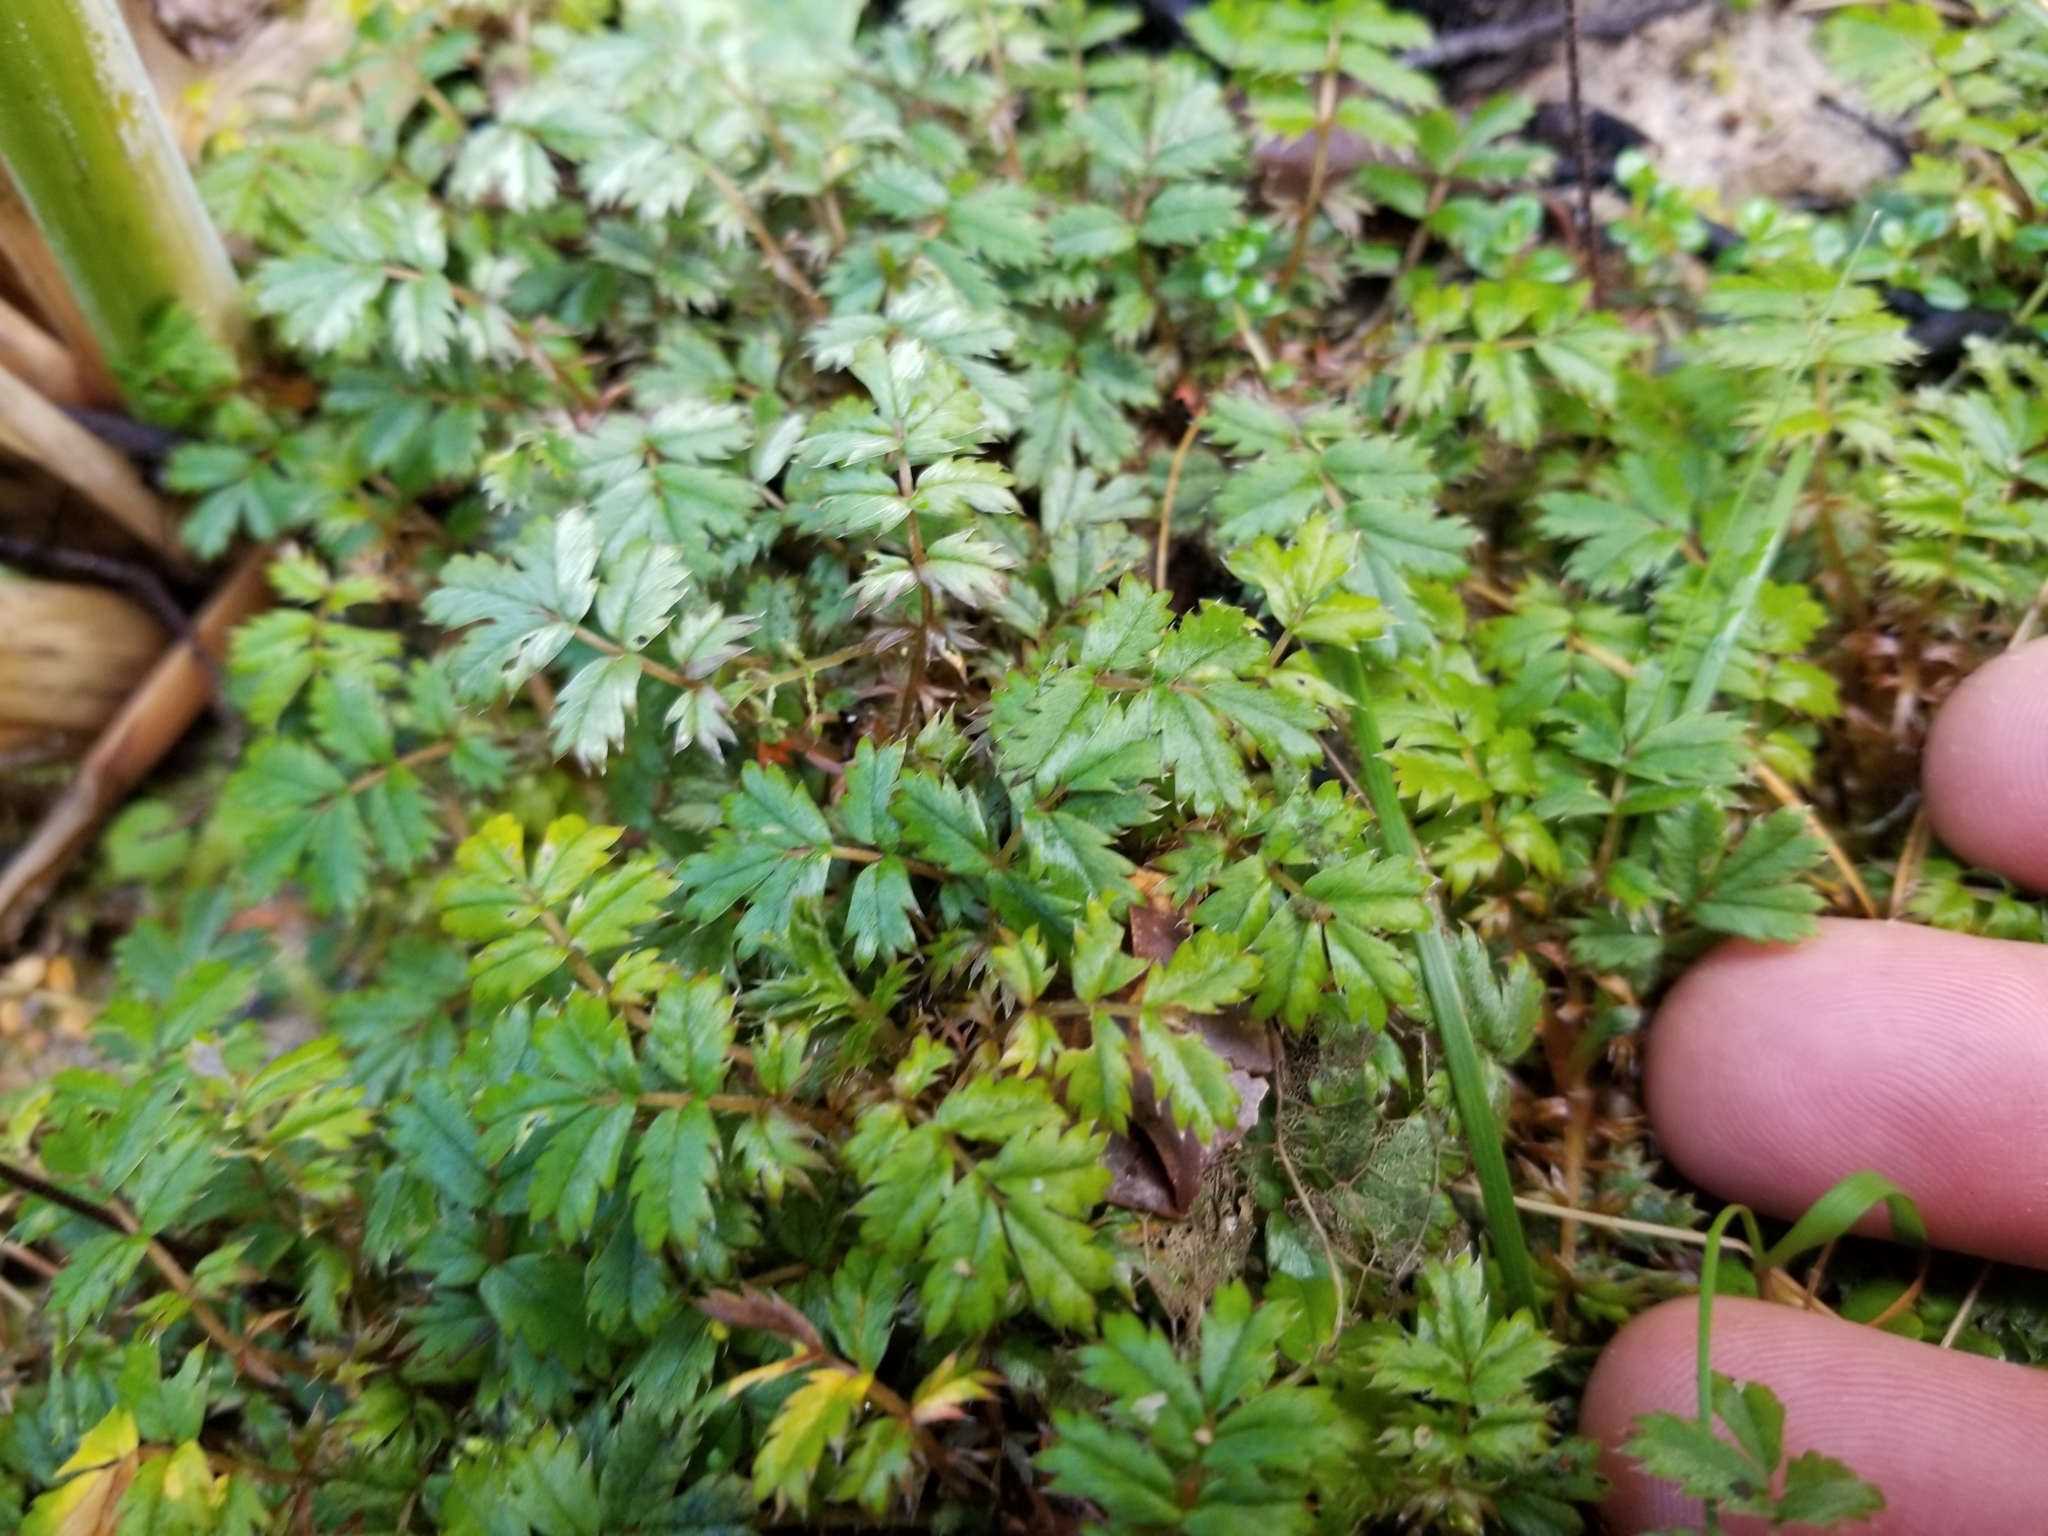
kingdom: Plantae
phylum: Tracheophyta
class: Magnoliopsida
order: Rosales
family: Rosaceae
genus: Acaena
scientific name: Acaena anserinifolia
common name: Bronze pirri-pirri-bur
